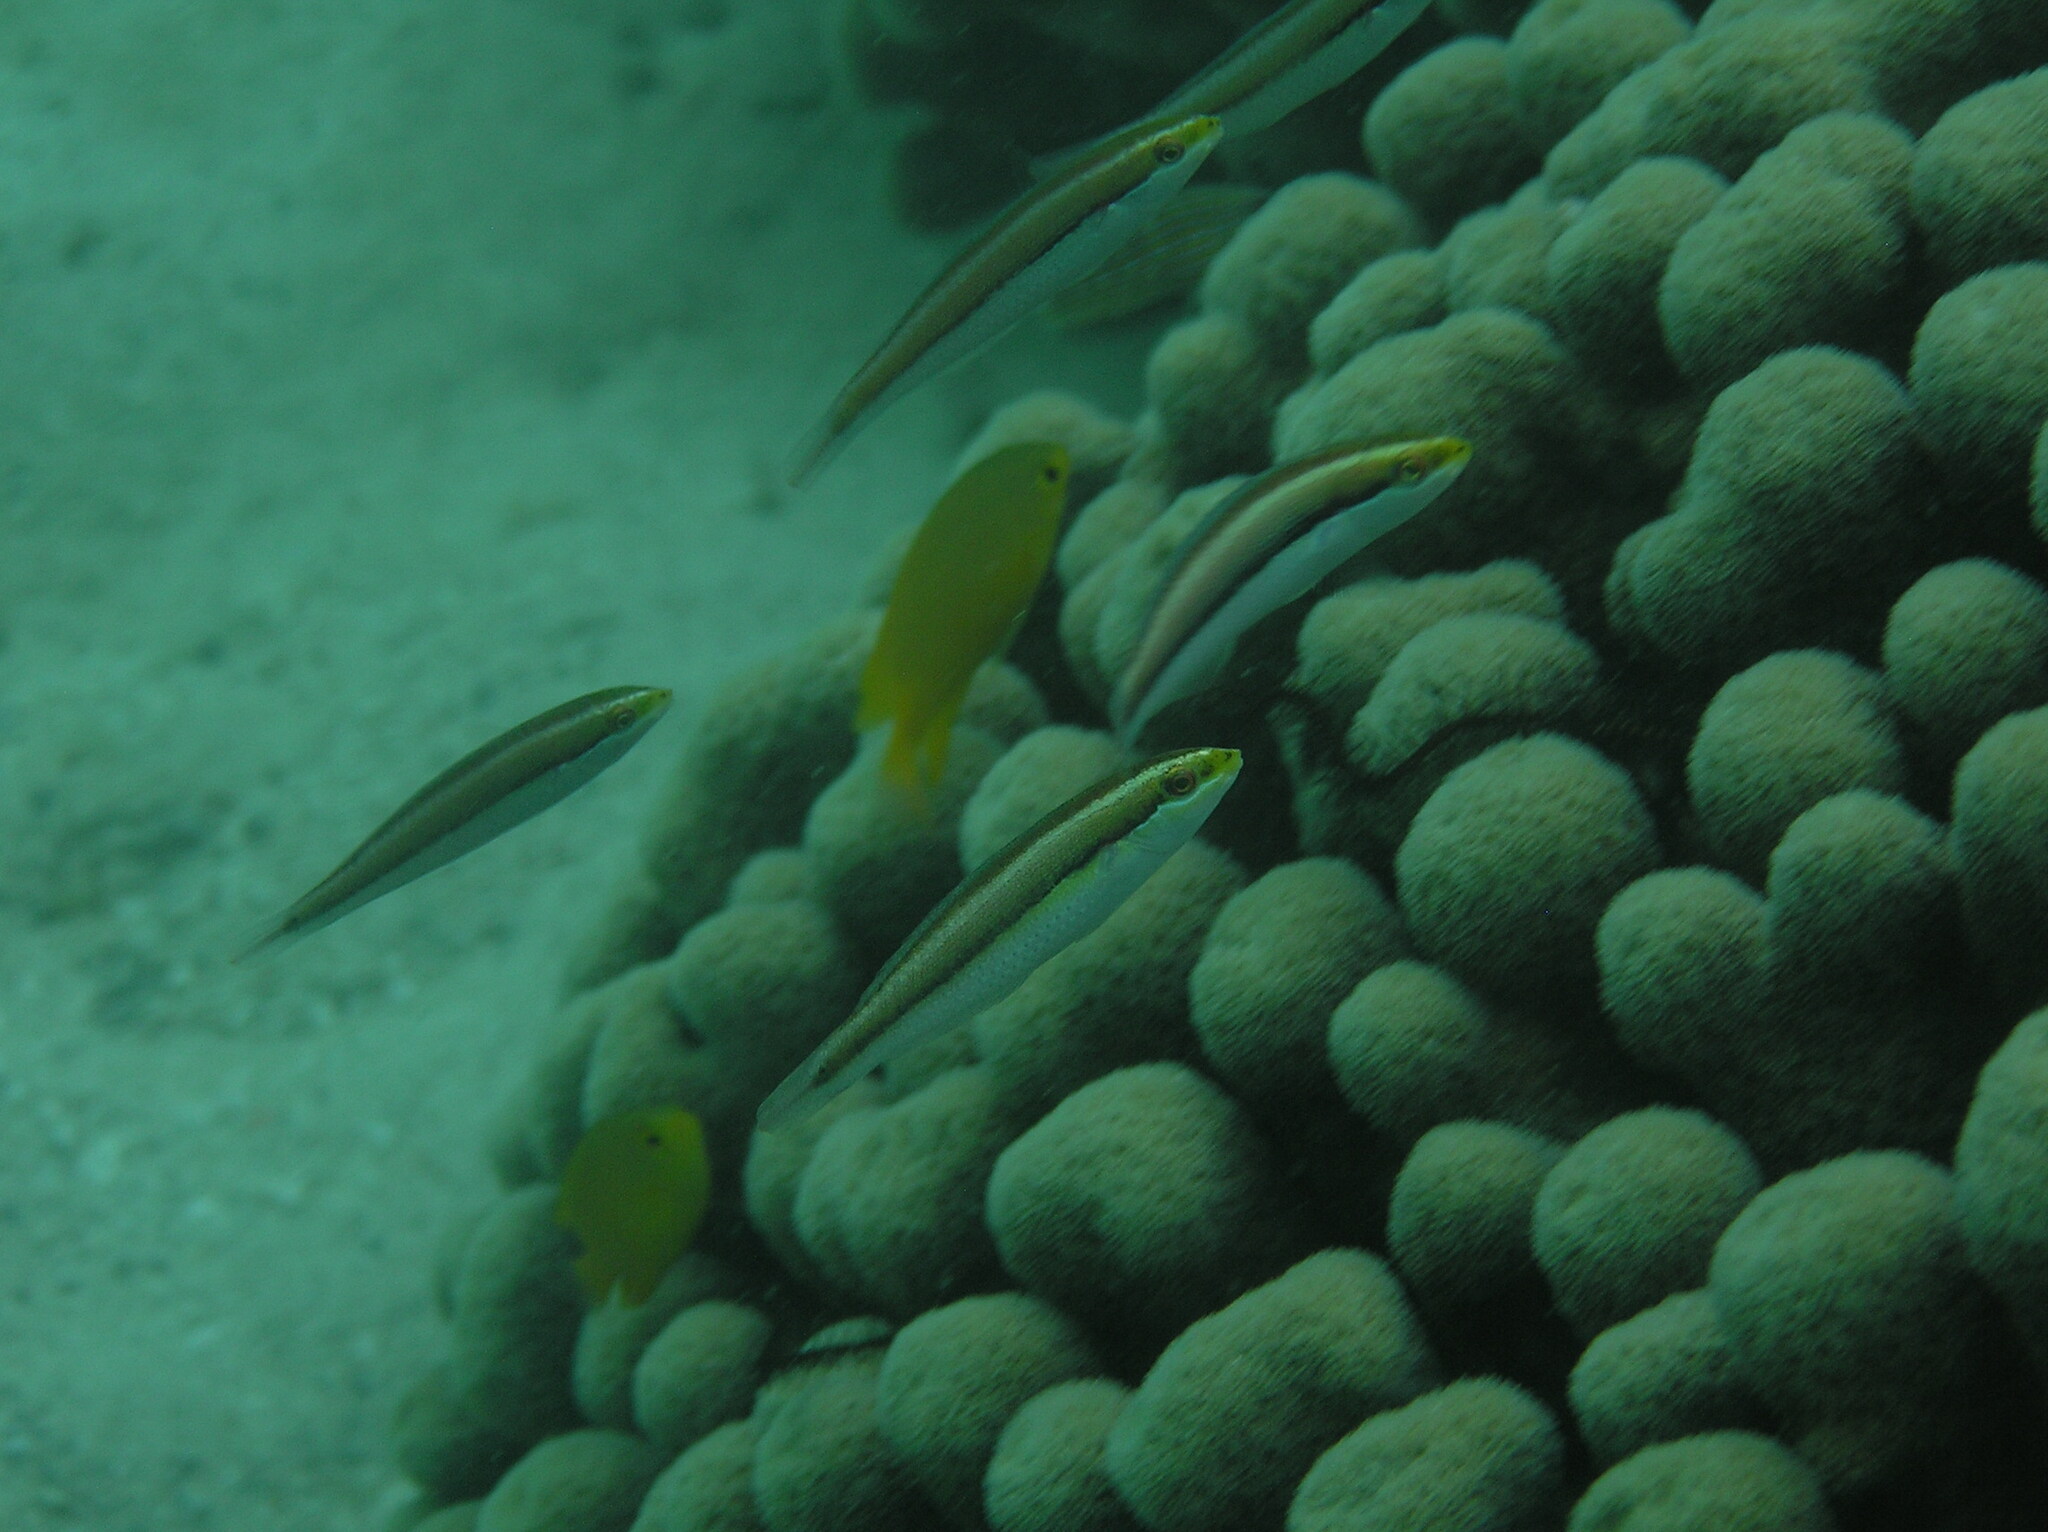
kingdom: Animalia
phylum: Chordata
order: Perciformes
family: Labridae
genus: Stethojulis
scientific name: Stethojulis interrupta
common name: Cutribbon wrasse
